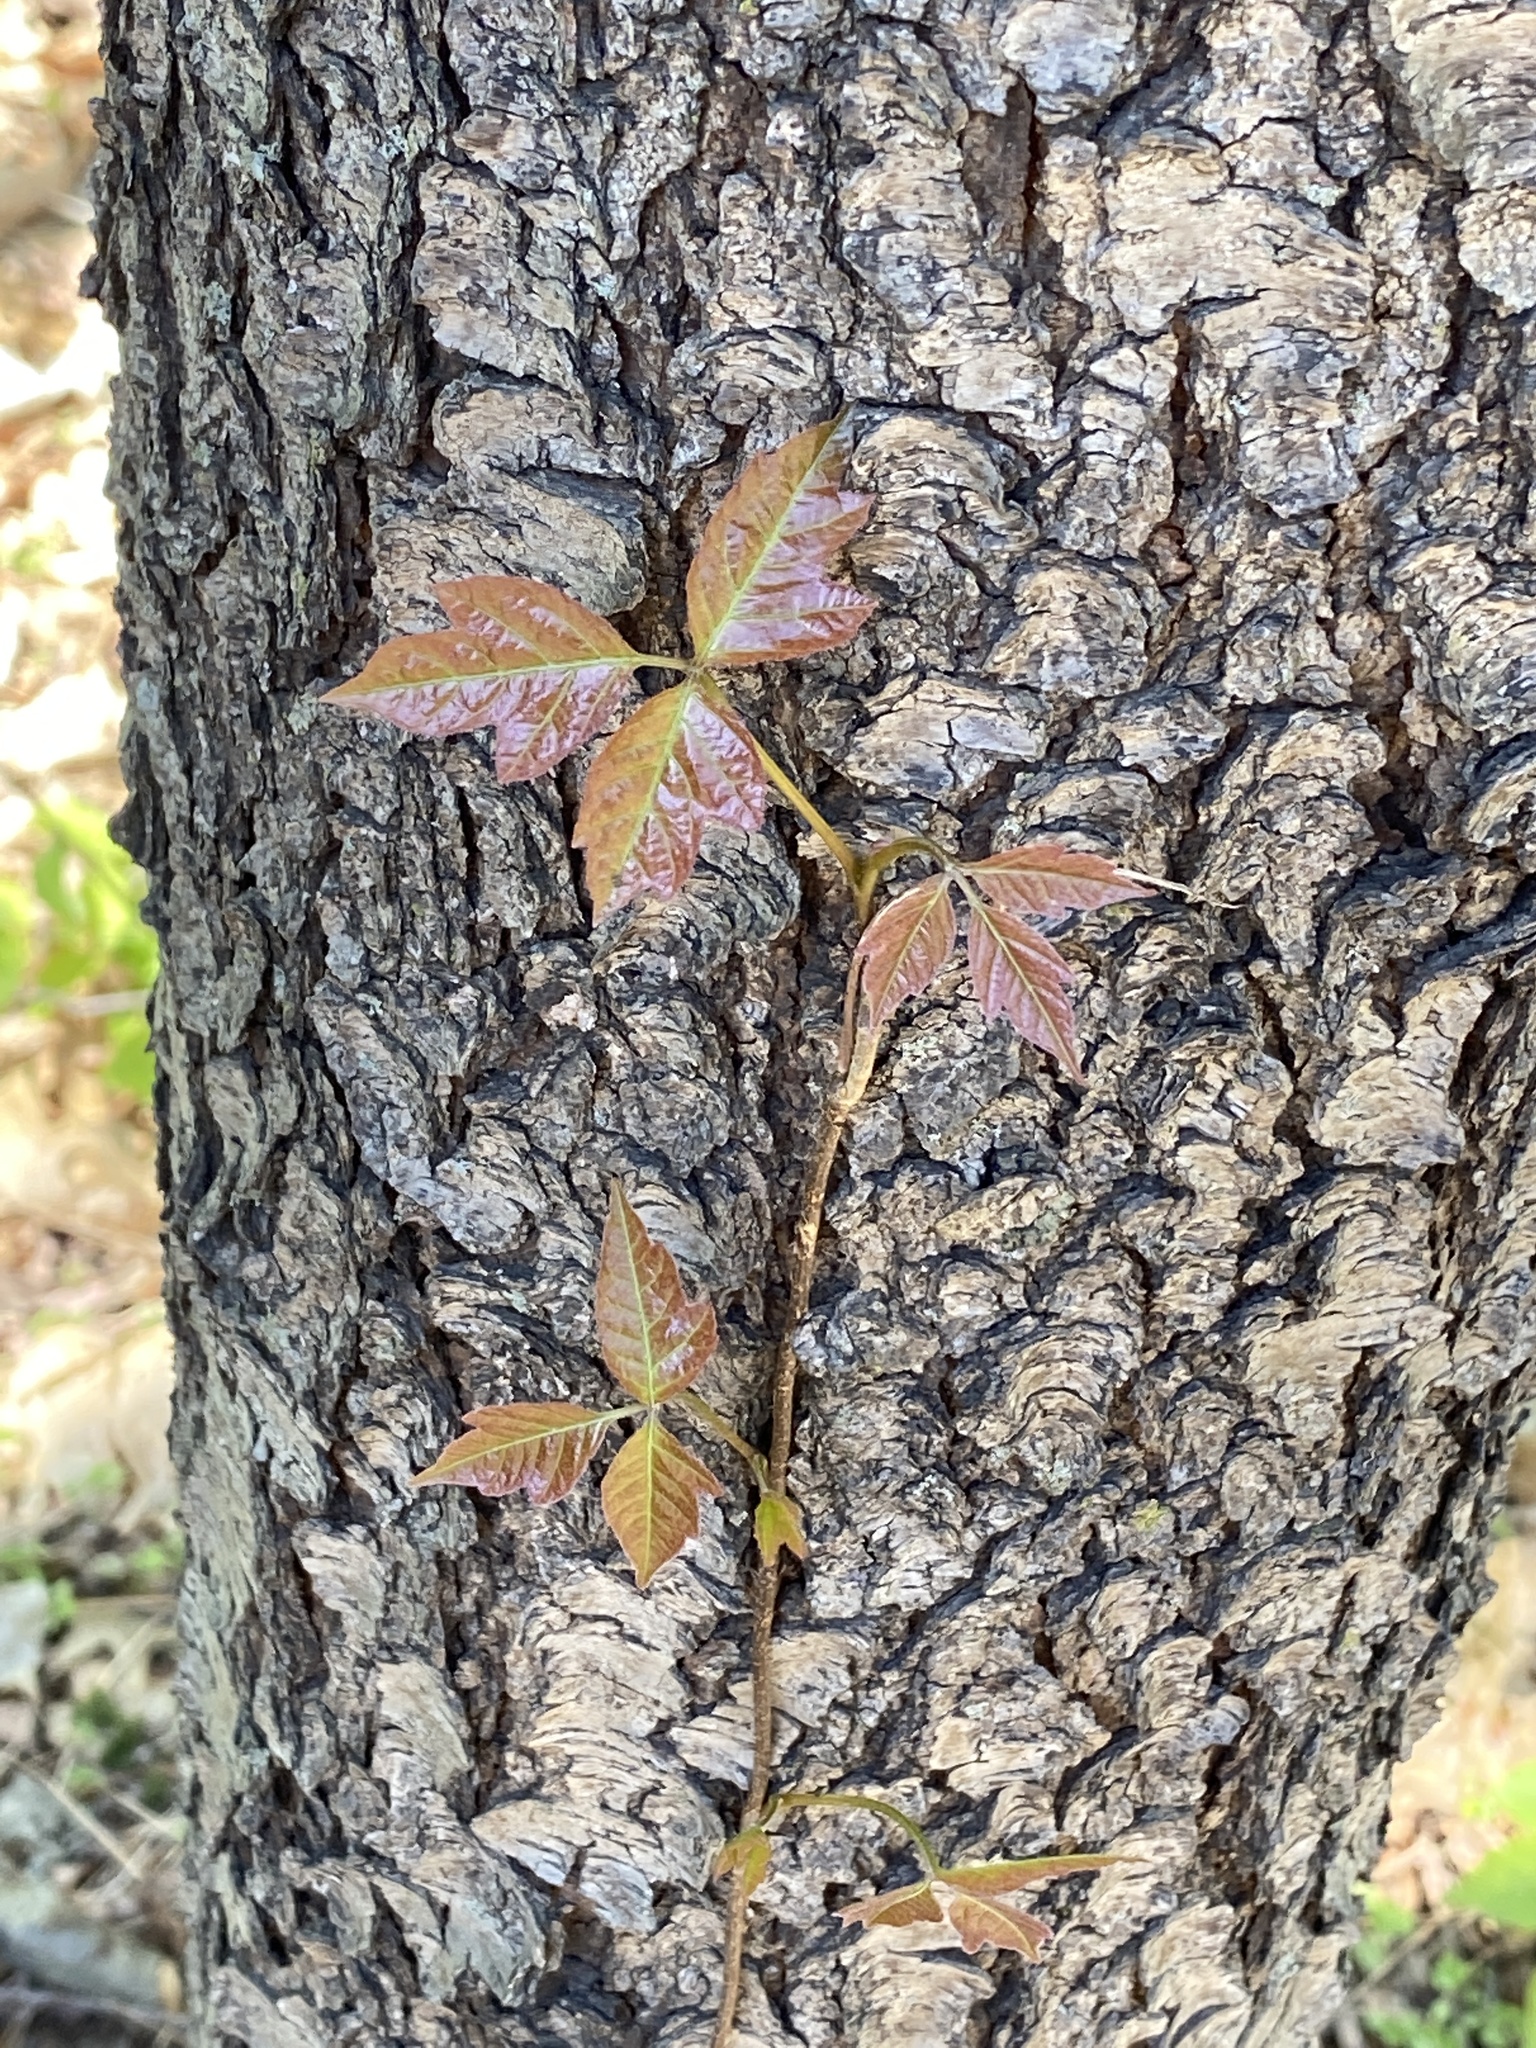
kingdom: Plantae
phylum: Tracheophyta
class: Magnoliopsida
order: Rosales
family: Rosaceae
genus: Prunus
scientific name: Prunus serotina
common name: Black cherry
